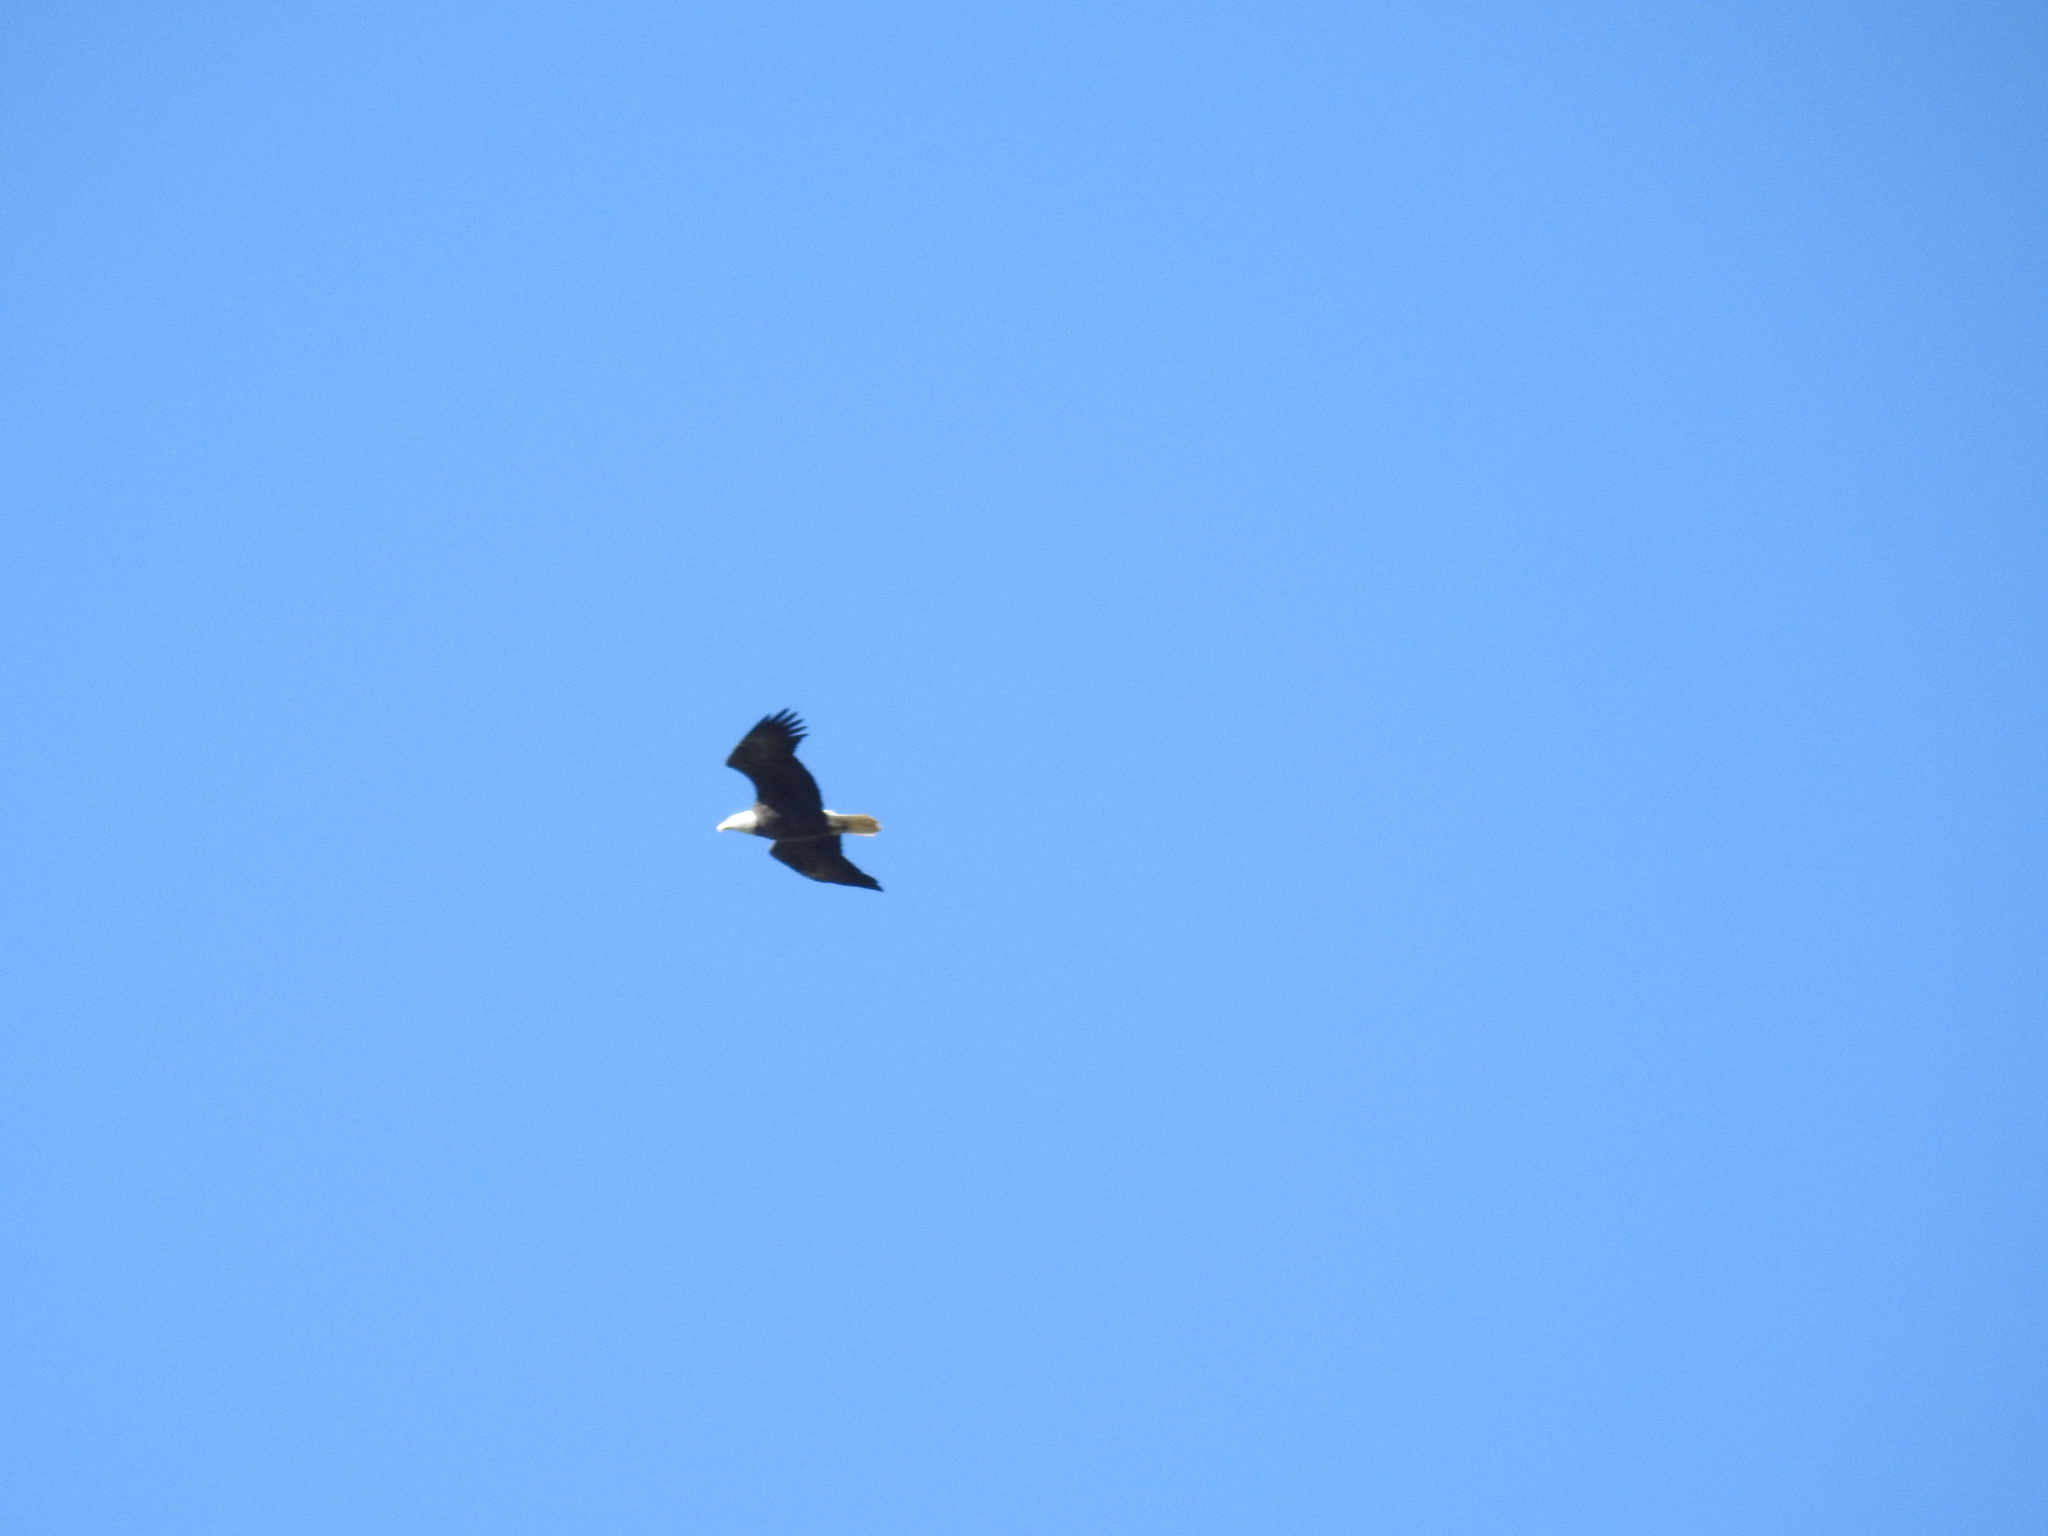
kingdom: Animalia
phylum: Chordata
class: Aves
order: Accipitriformes
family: Accipitridae
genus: Haliaeetus
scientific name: Haliaeetus leucocephalus
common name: Bald eagle
